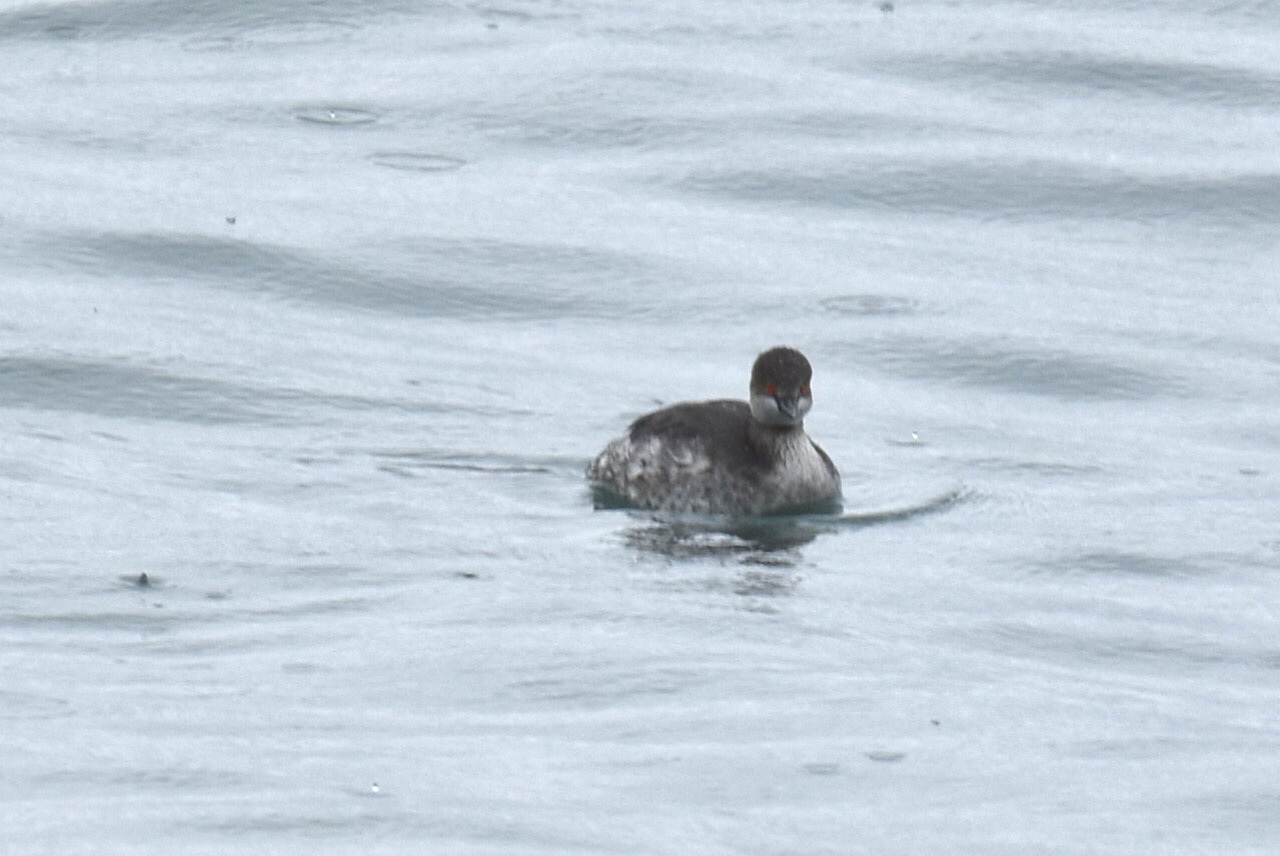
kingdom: Animalia
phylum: Chordata
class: Aves
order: Podicipediformes
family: Podicipedidae
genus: Podiceps
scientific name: Podiceps nigricollis
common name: Black-necked grebe
